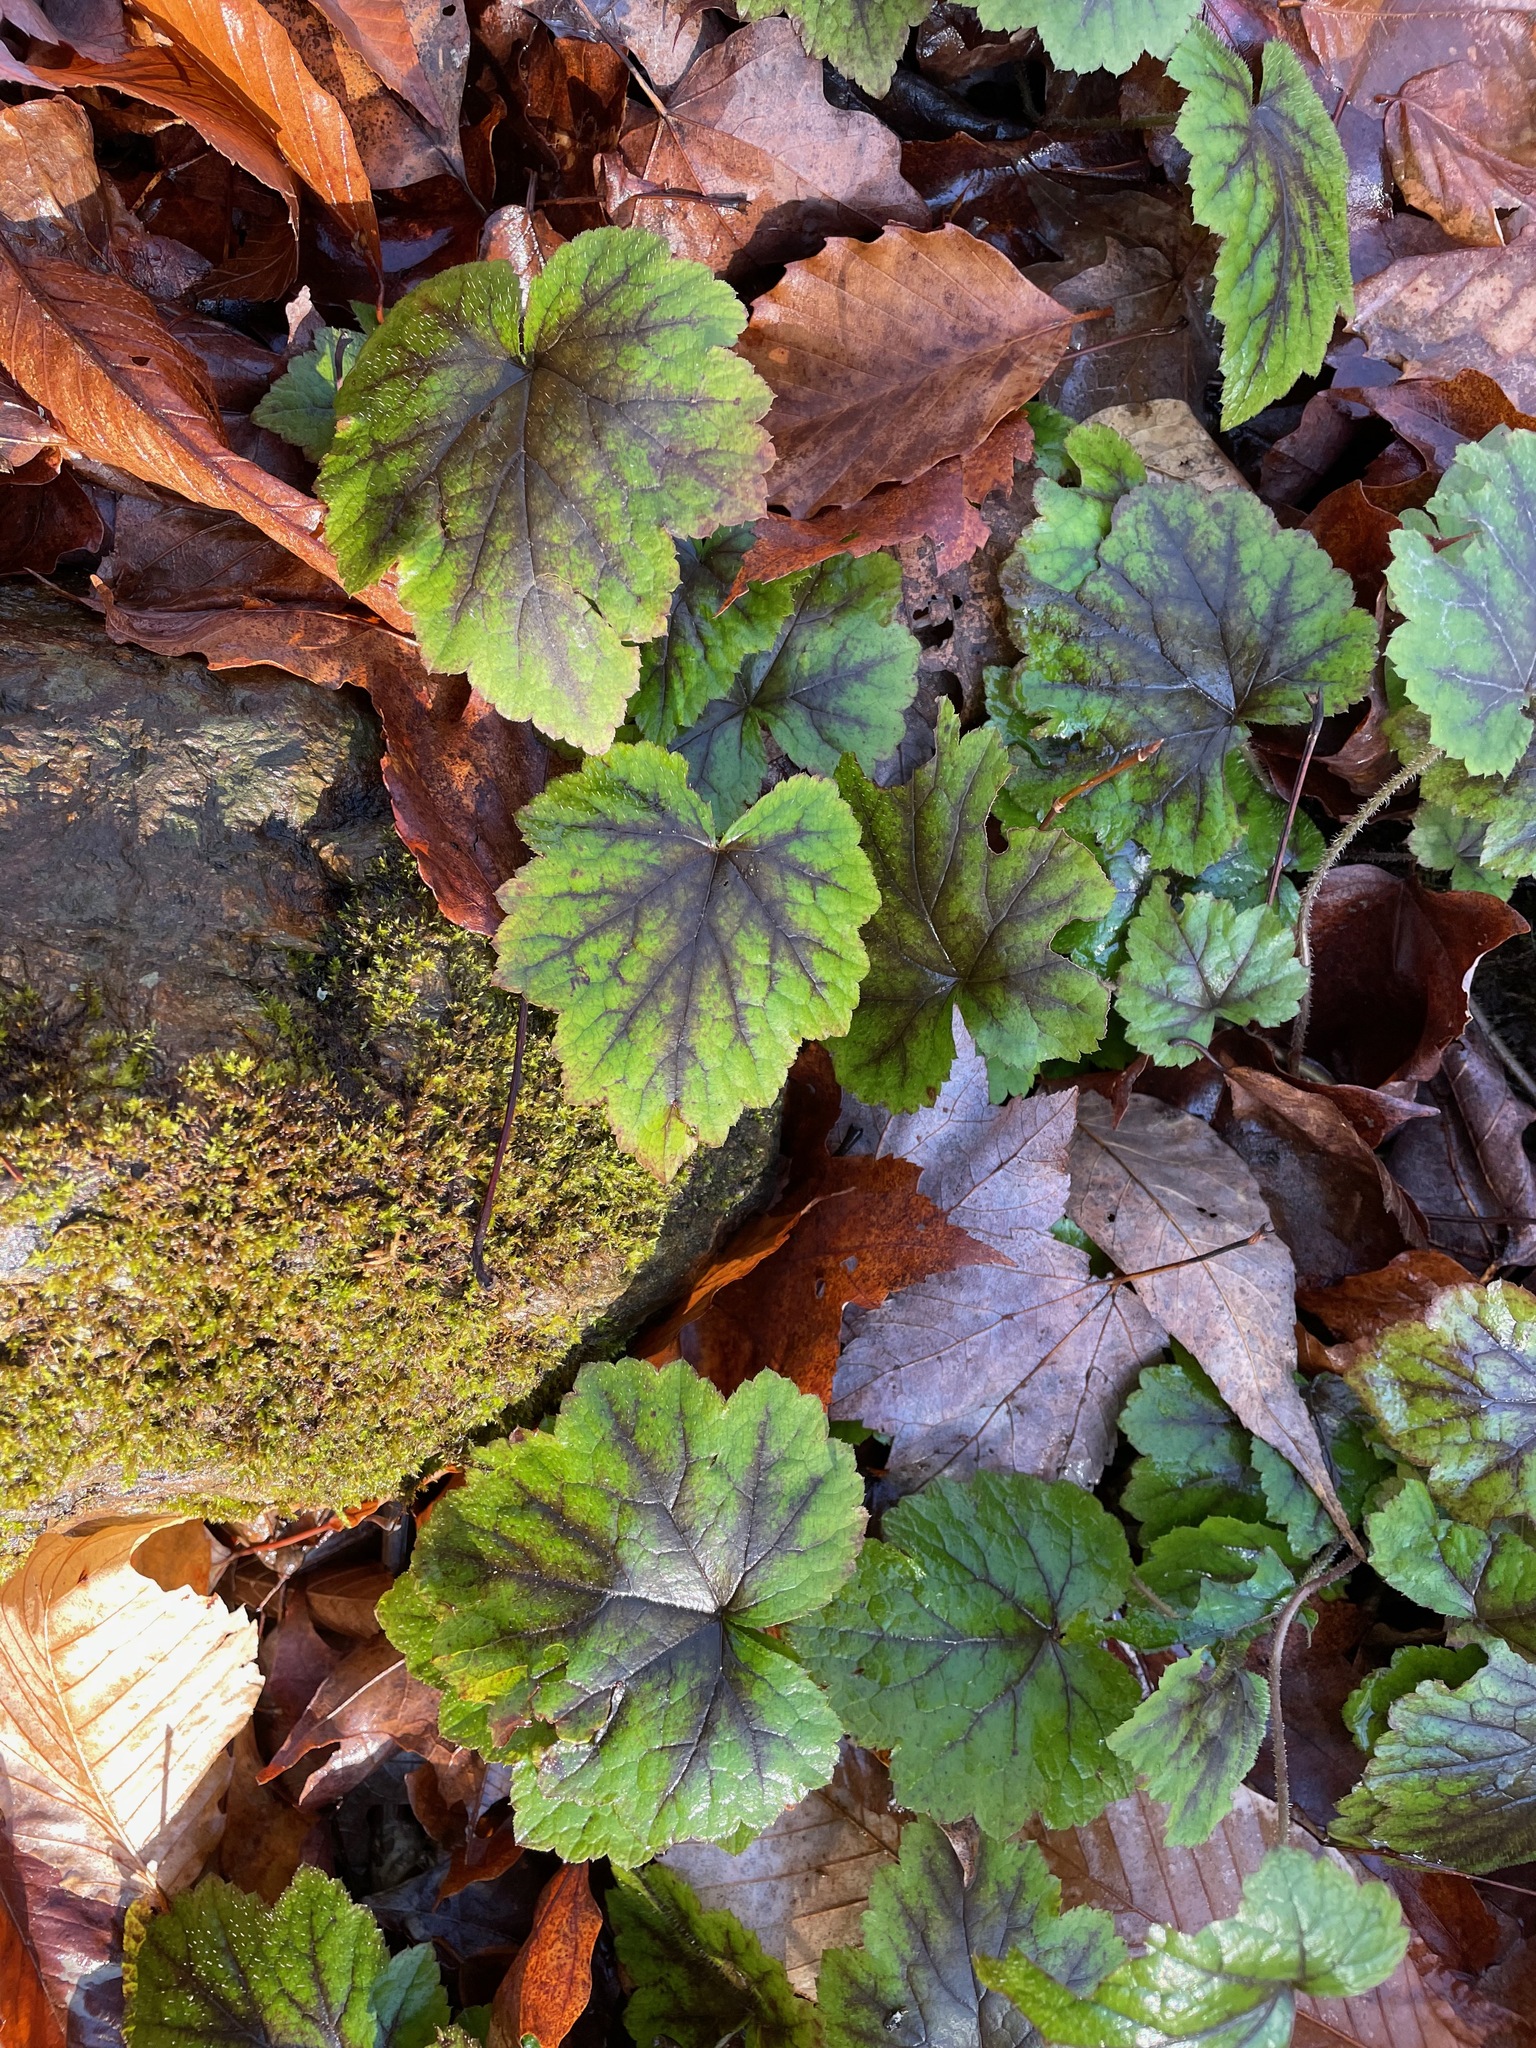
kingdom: Plantae
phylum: Tracheophyta
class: Magnoliopsida
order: Saxifragales
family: Saxifragaceae
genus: Tiarella
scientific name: Tiarella stolonifera
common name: Stoloniferous foamflower
